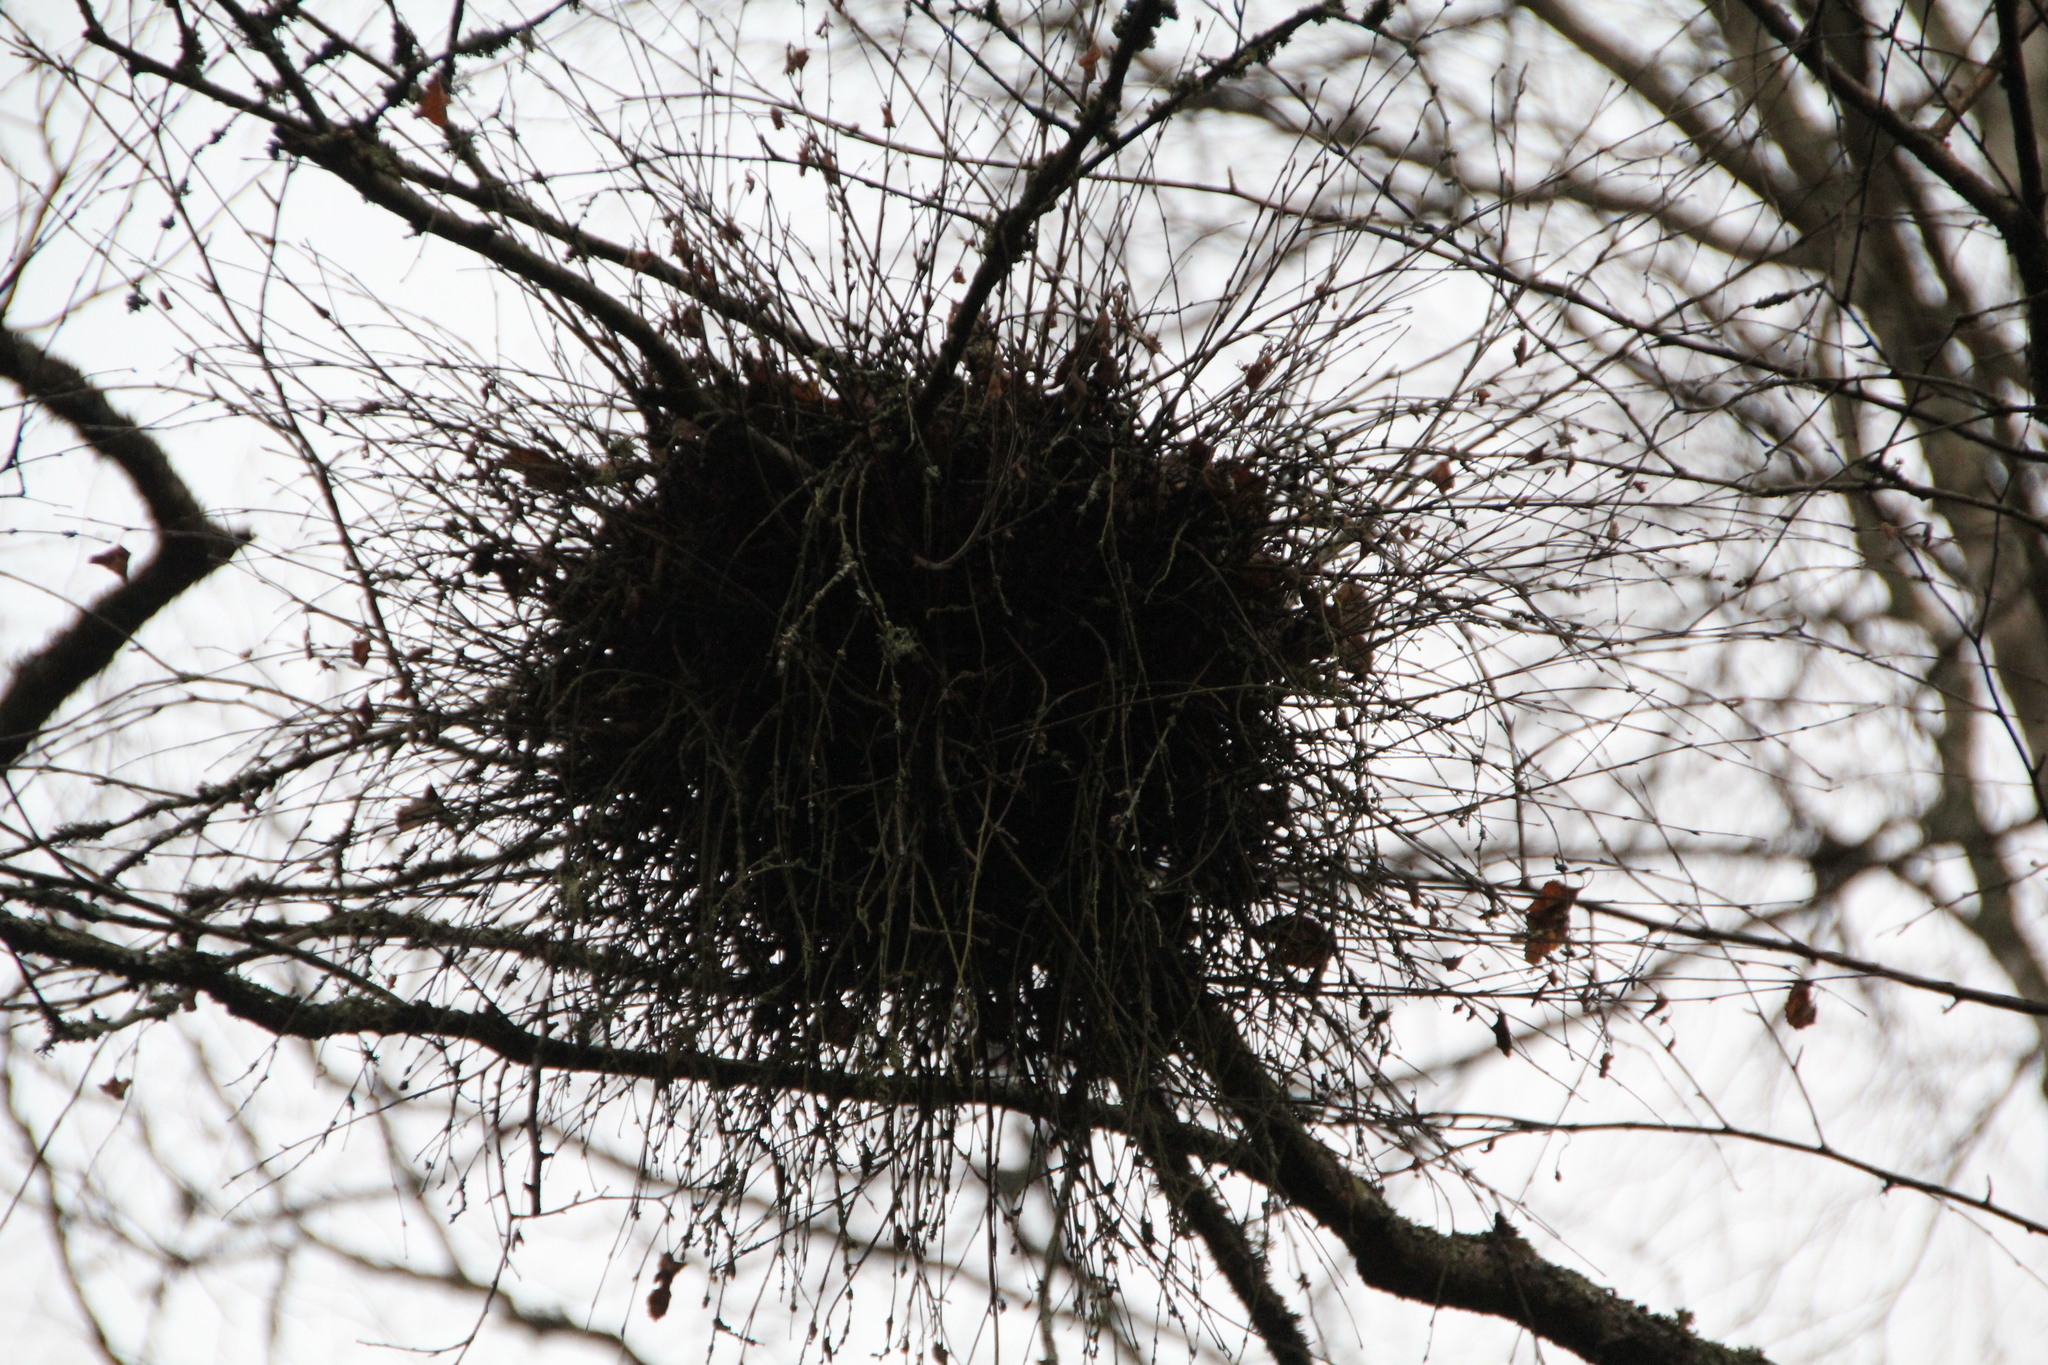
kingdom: Fungi
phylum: Ascomycota
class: Taphrinomycetes
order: Taphrinales
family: Taphrinaceae
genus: Taphrina
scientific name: Taphrina betulina
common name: Birch besom
